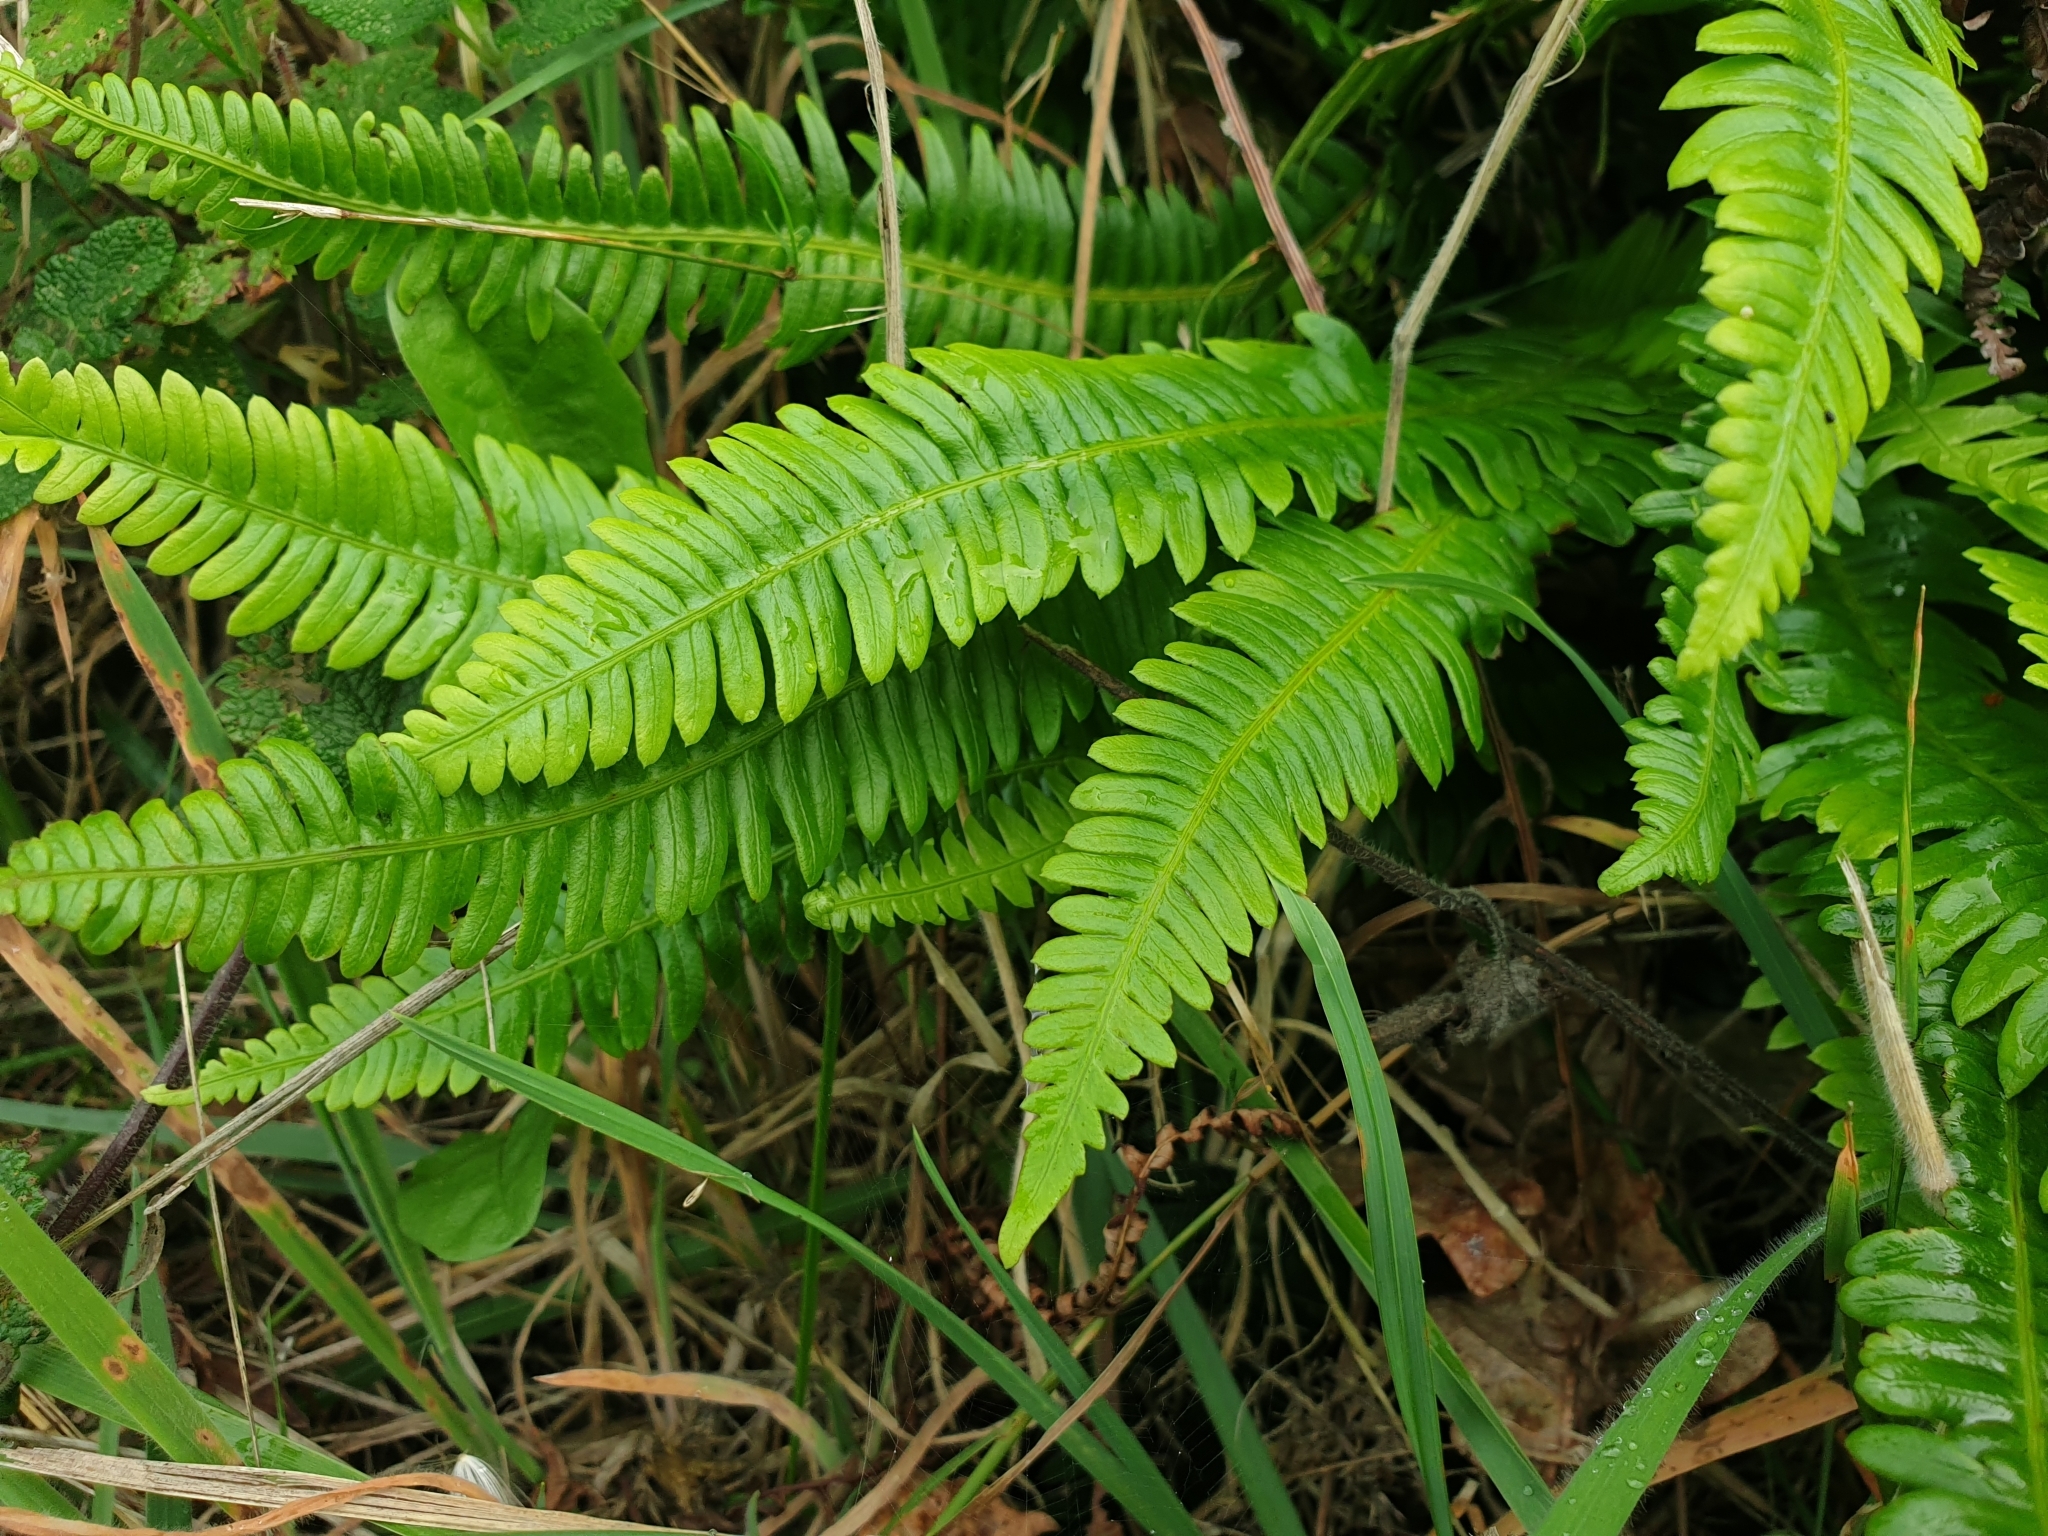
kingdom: Plantae
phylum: Tracheophyta
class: Polypodiopsida
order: Polypodiales
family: Blechnaceae
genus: Struthiopteris
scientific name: Struthiopteris spicant
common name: Deer fern
